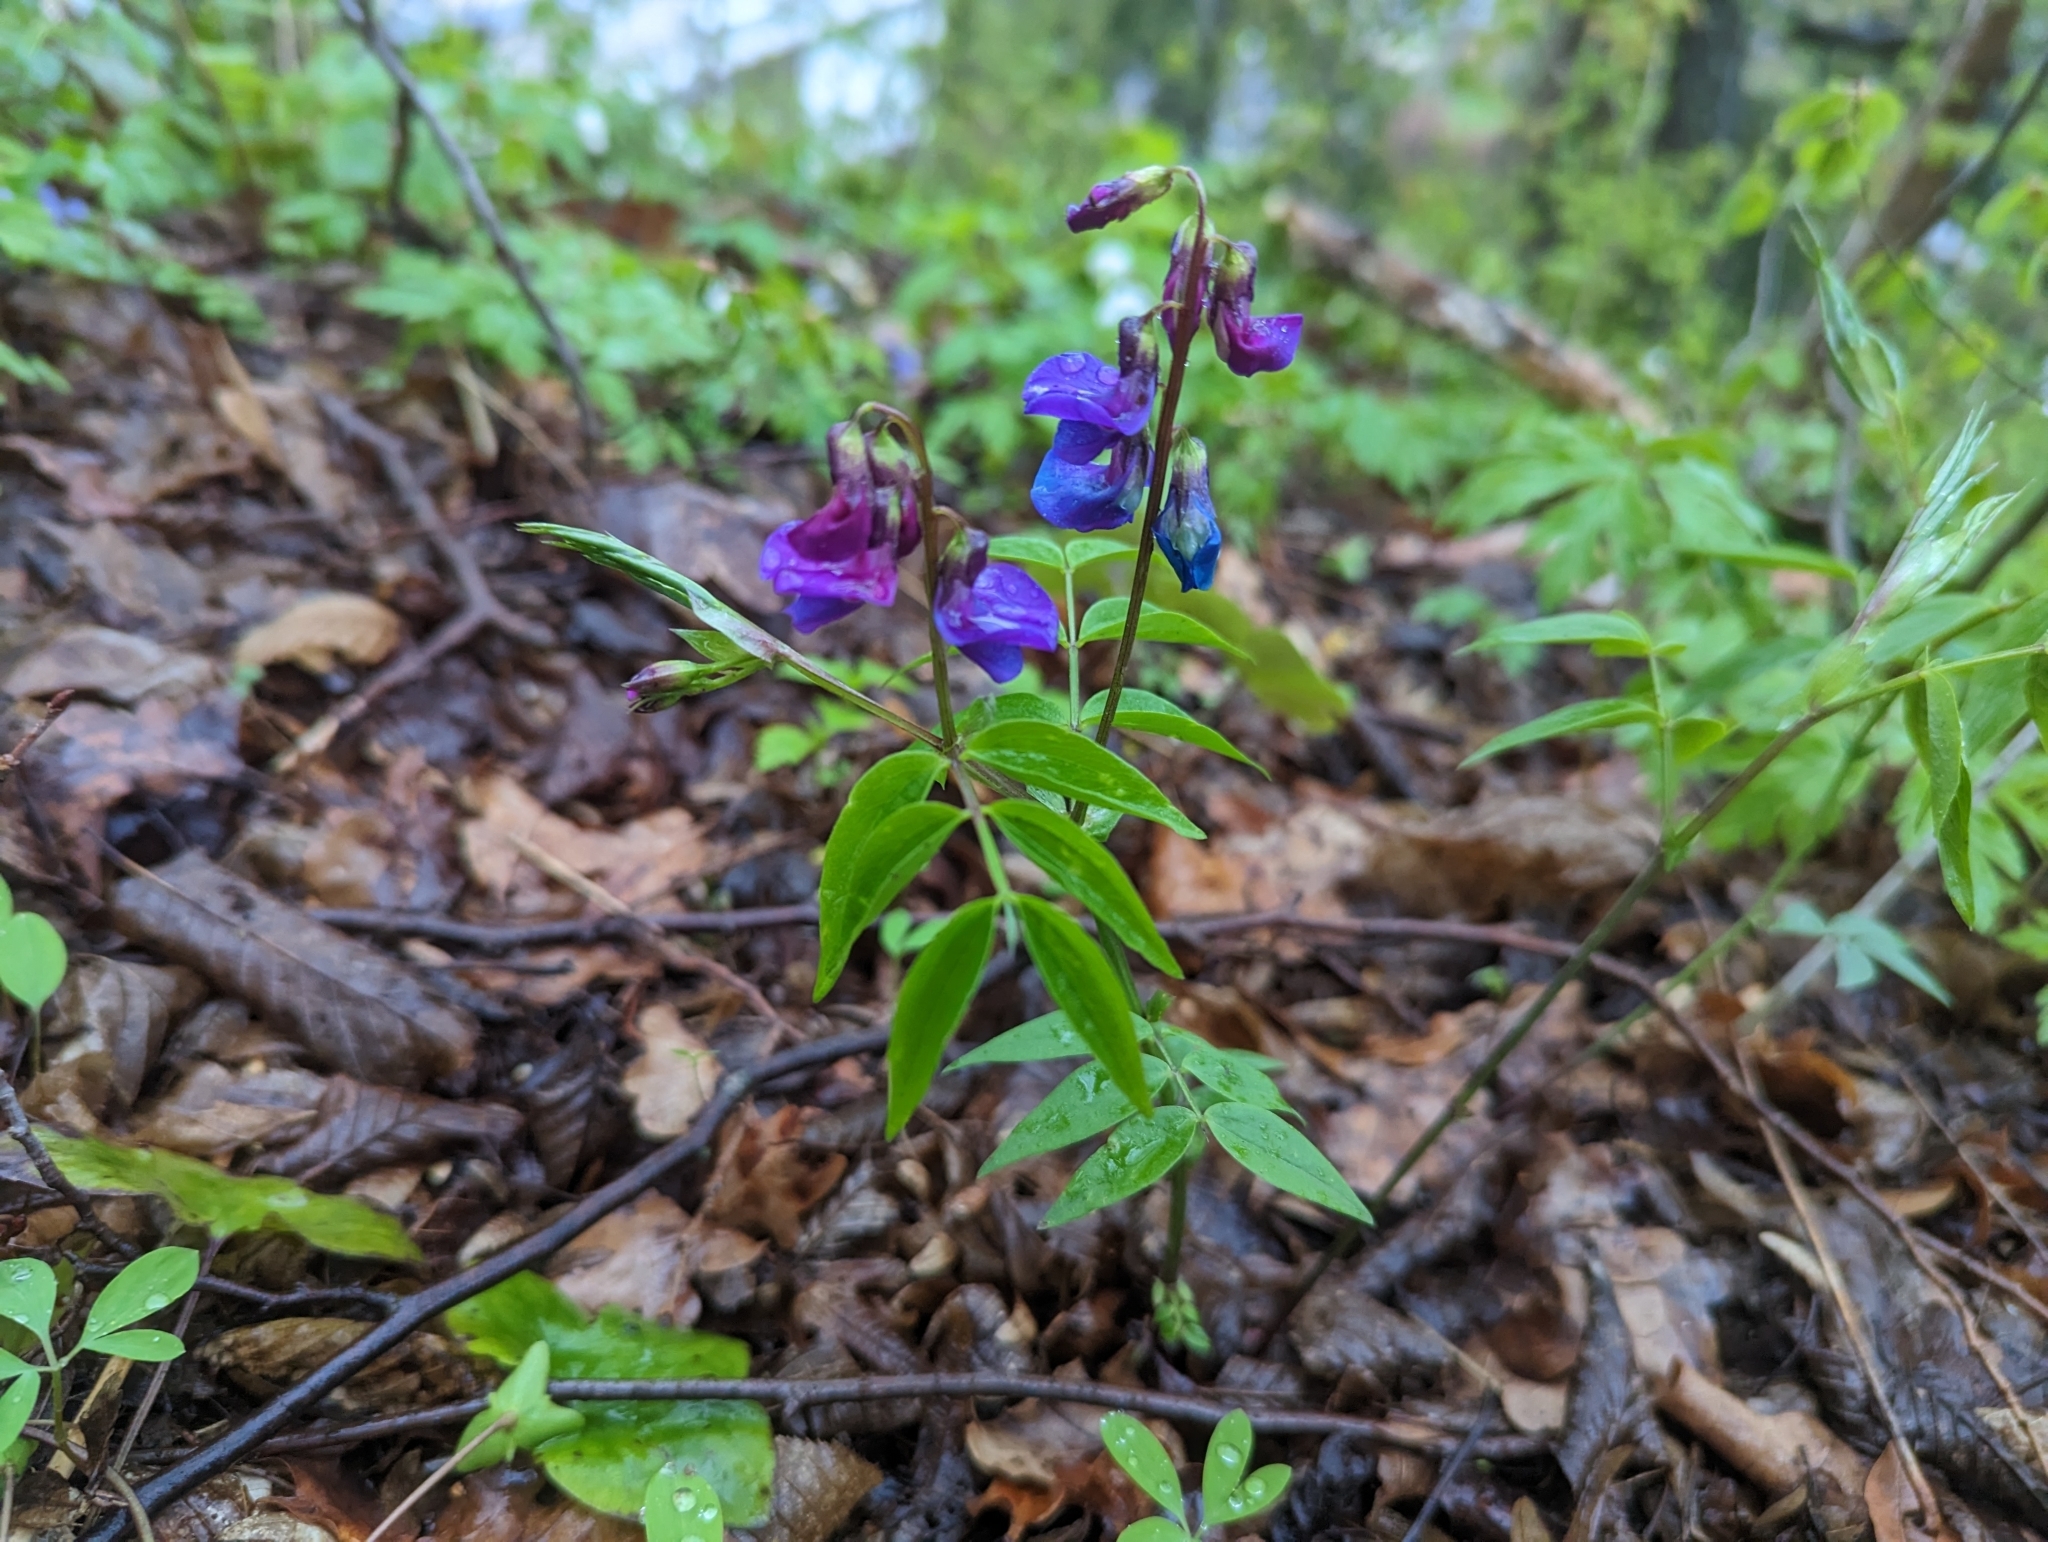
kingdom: Plantae
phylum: Tracheophyta
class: Magnoliopsida
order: Fabales
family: Fabaceae
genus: Lathyrus
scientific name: Lathyrus vernus
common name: Spring pea
